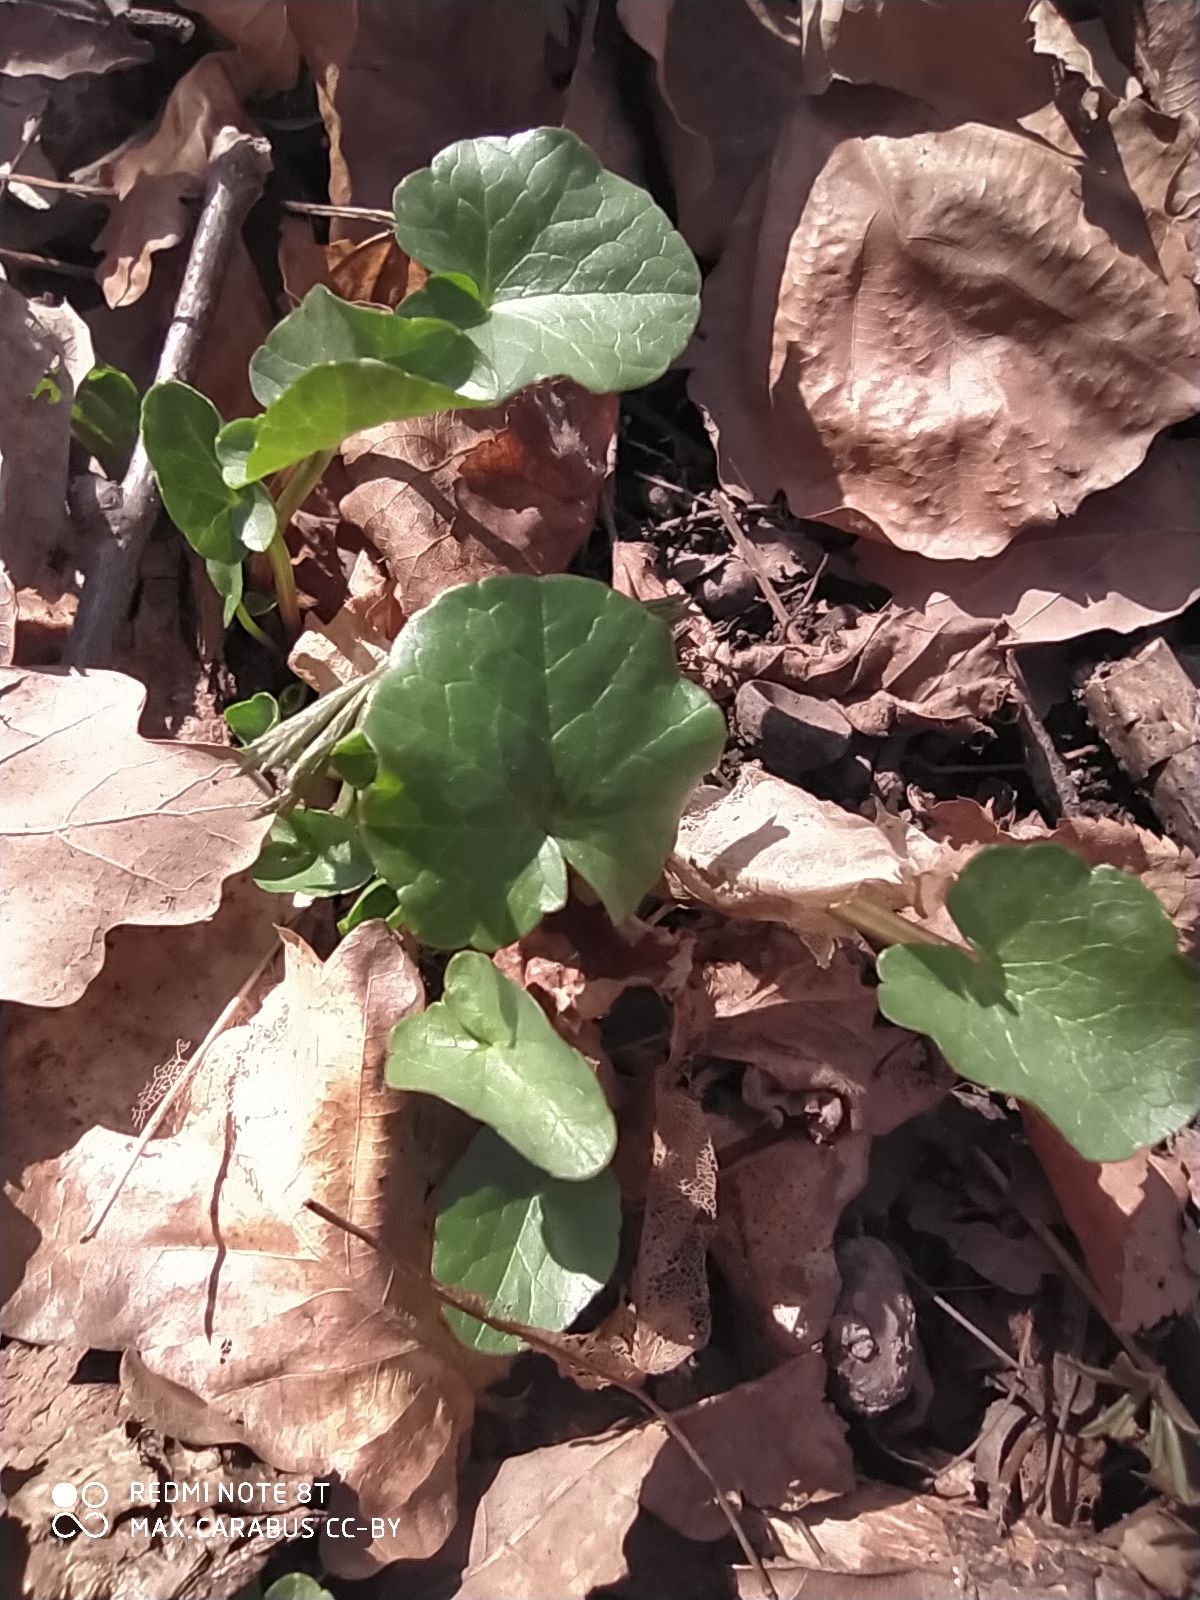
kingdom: Plantae
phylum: Tracheophyta
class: Magnoliopsida
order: Ranunculales
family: Ranunculaceae
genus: Ficaria
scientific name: Ficaria verna
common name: Lesser celandine
